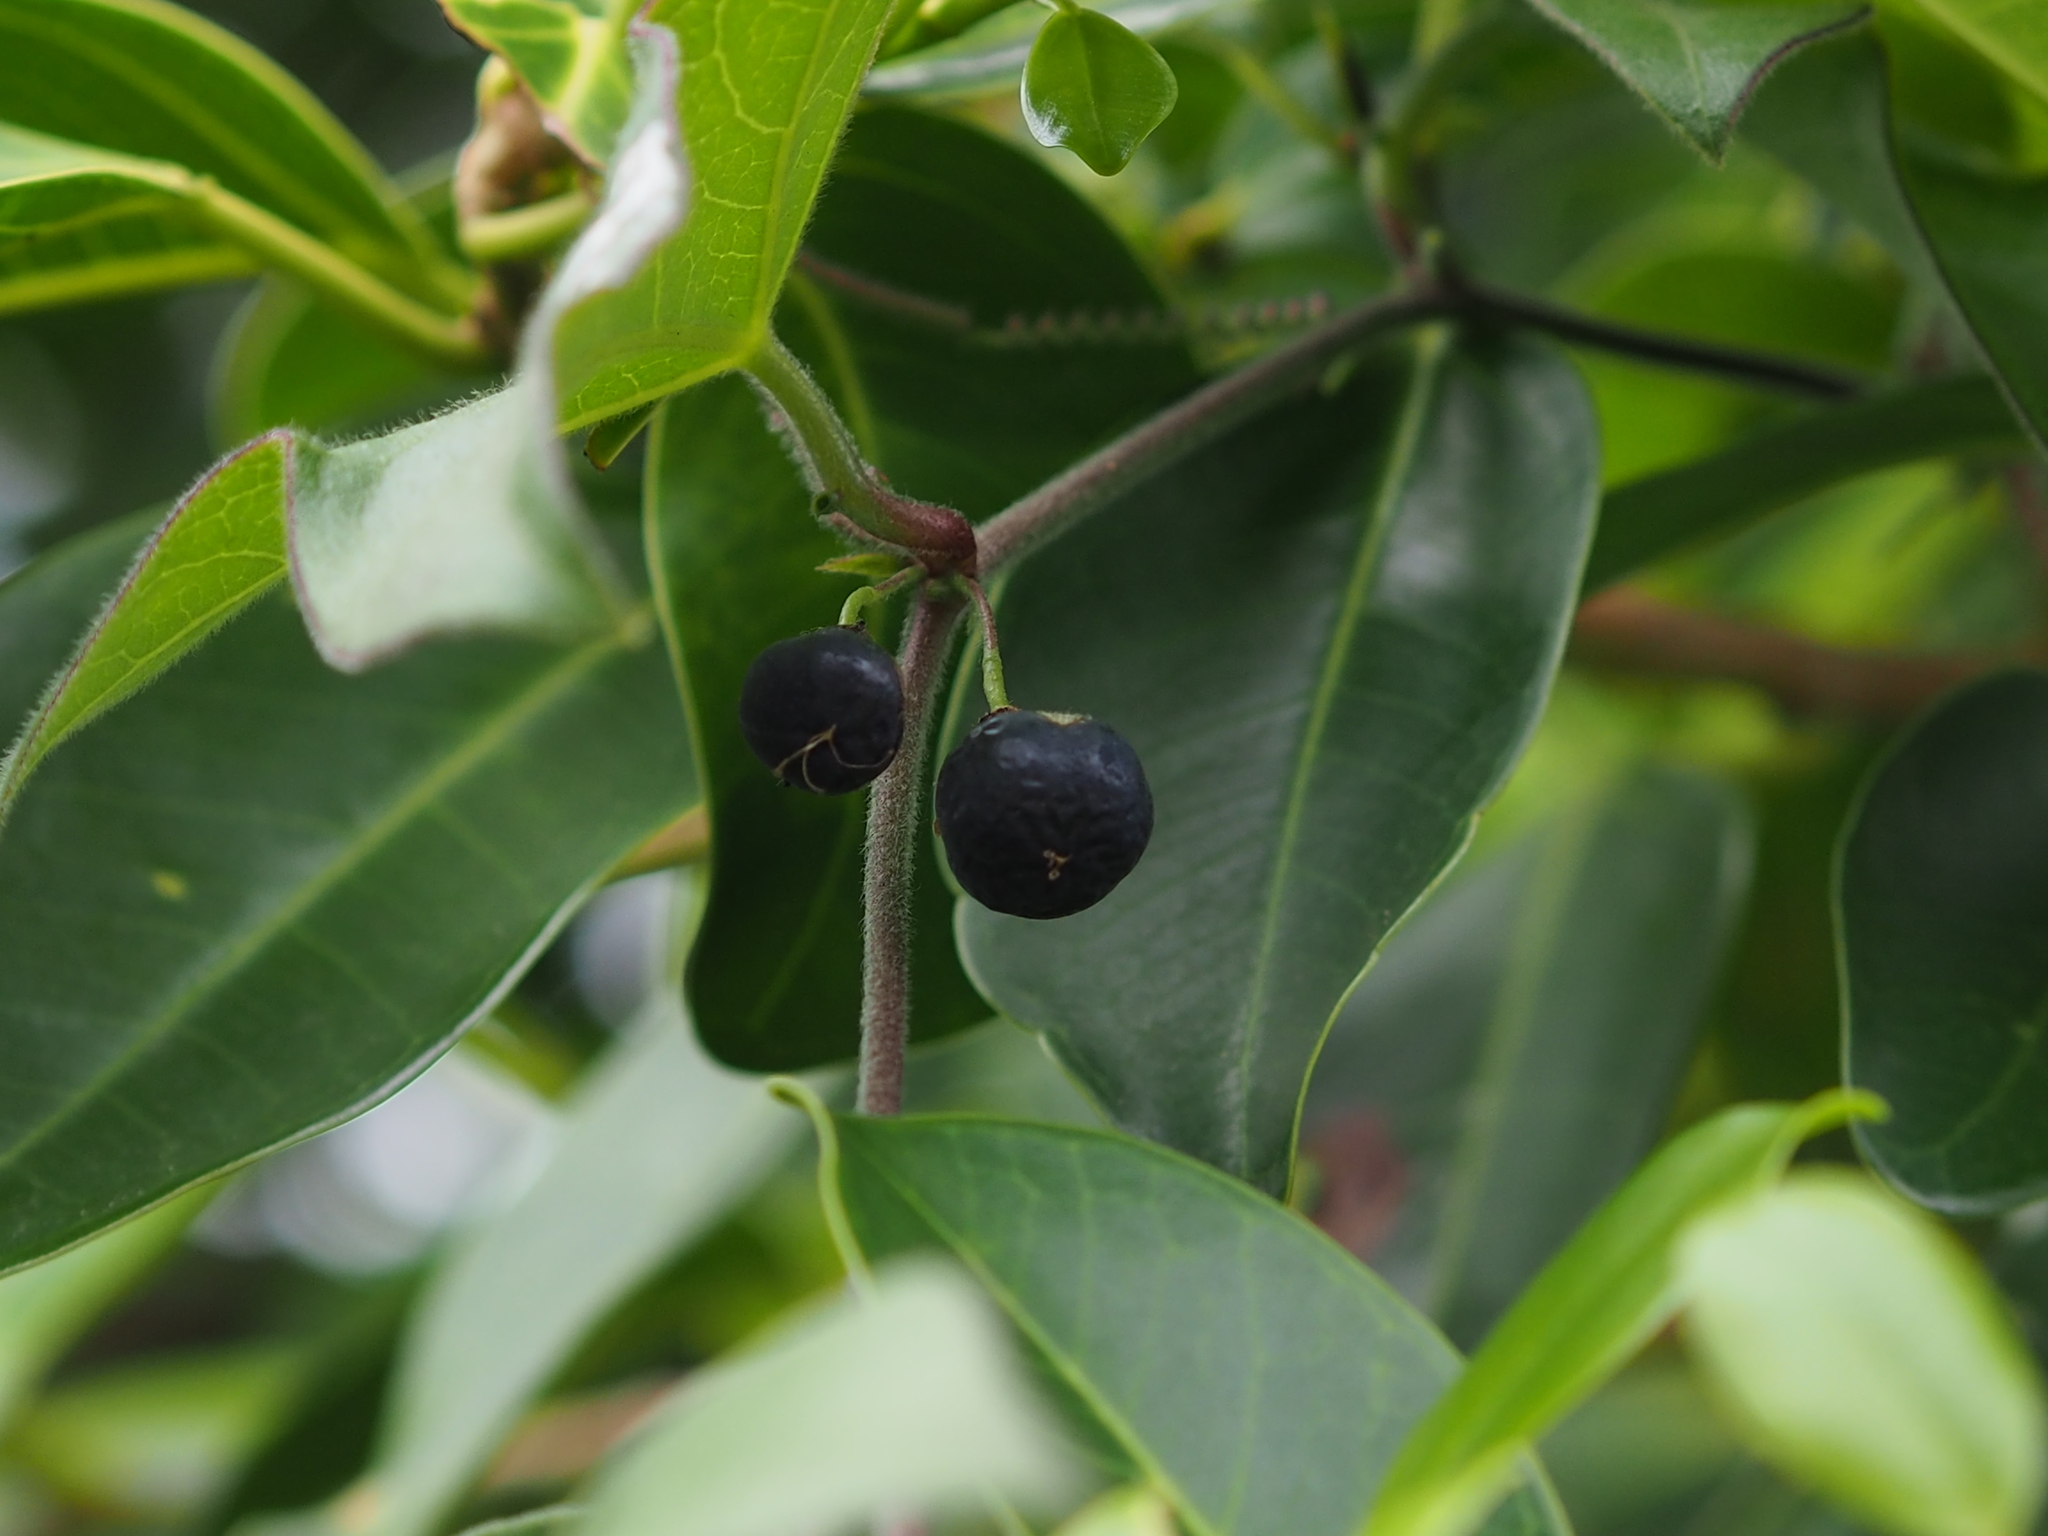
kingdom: Plantae
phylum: Tracheophyta
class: Magnoliopsida
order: Malpighiales
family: Passifloraceae
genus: Passiflora
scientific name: Passiflora suberosa
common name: Wild passionfruit
